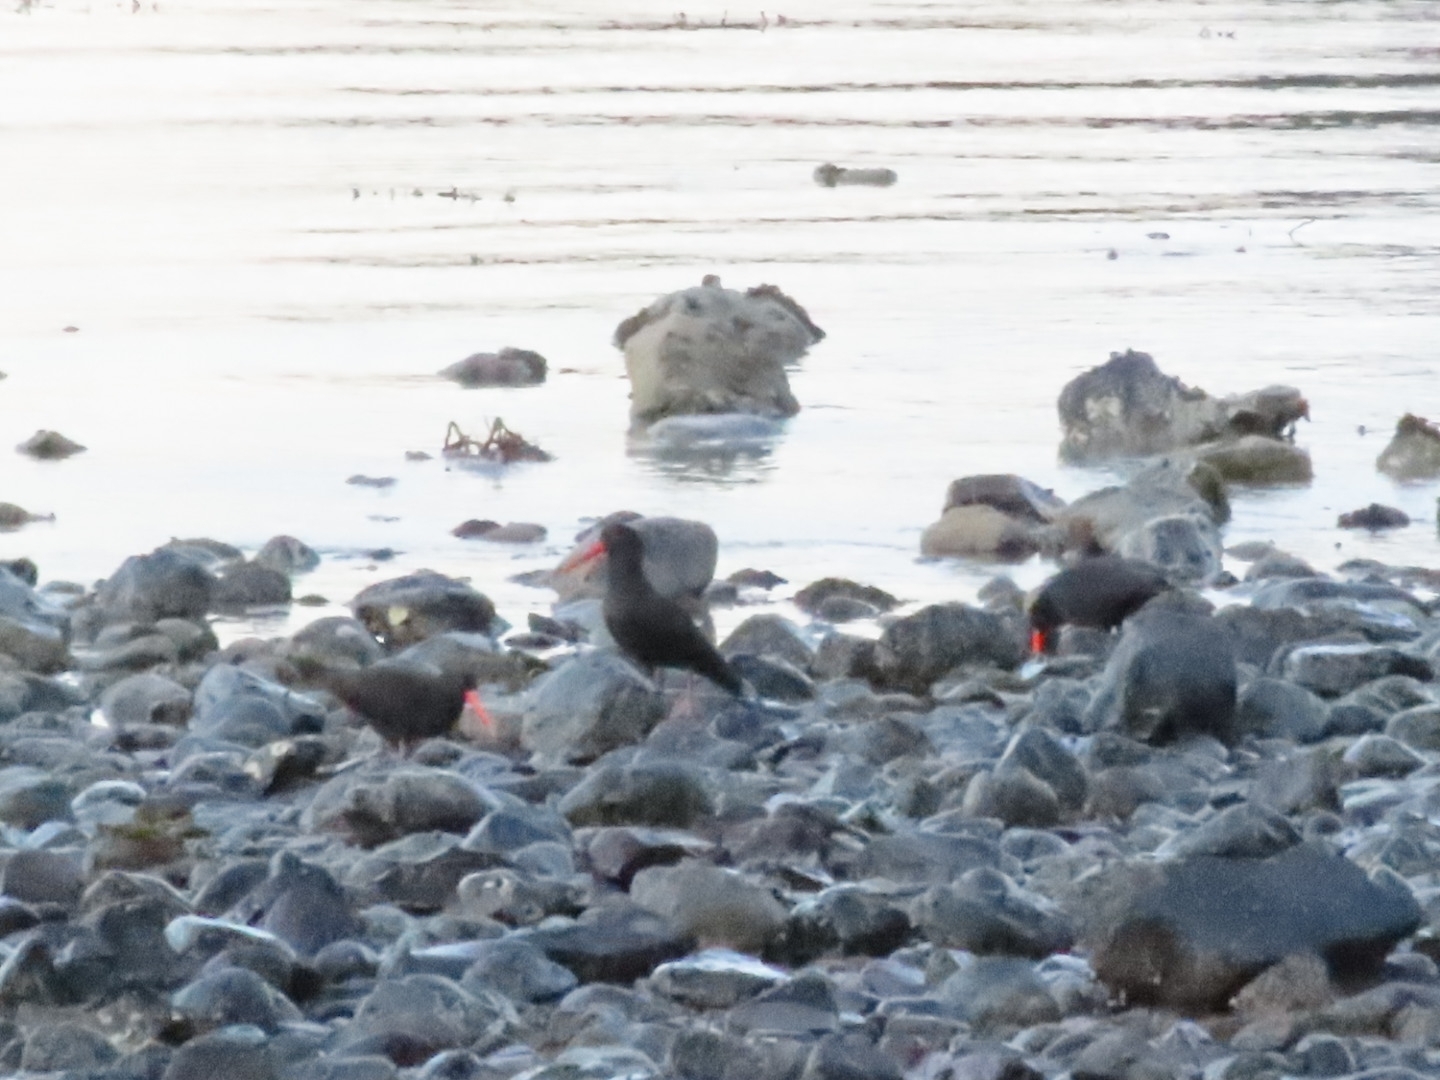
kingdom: Animalia
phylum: Chordata
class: Aves
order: Charadriiformes
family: Haematopodidae
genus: Haematopus
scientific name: Haematopus unicolor
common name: Variable oystercatcher
